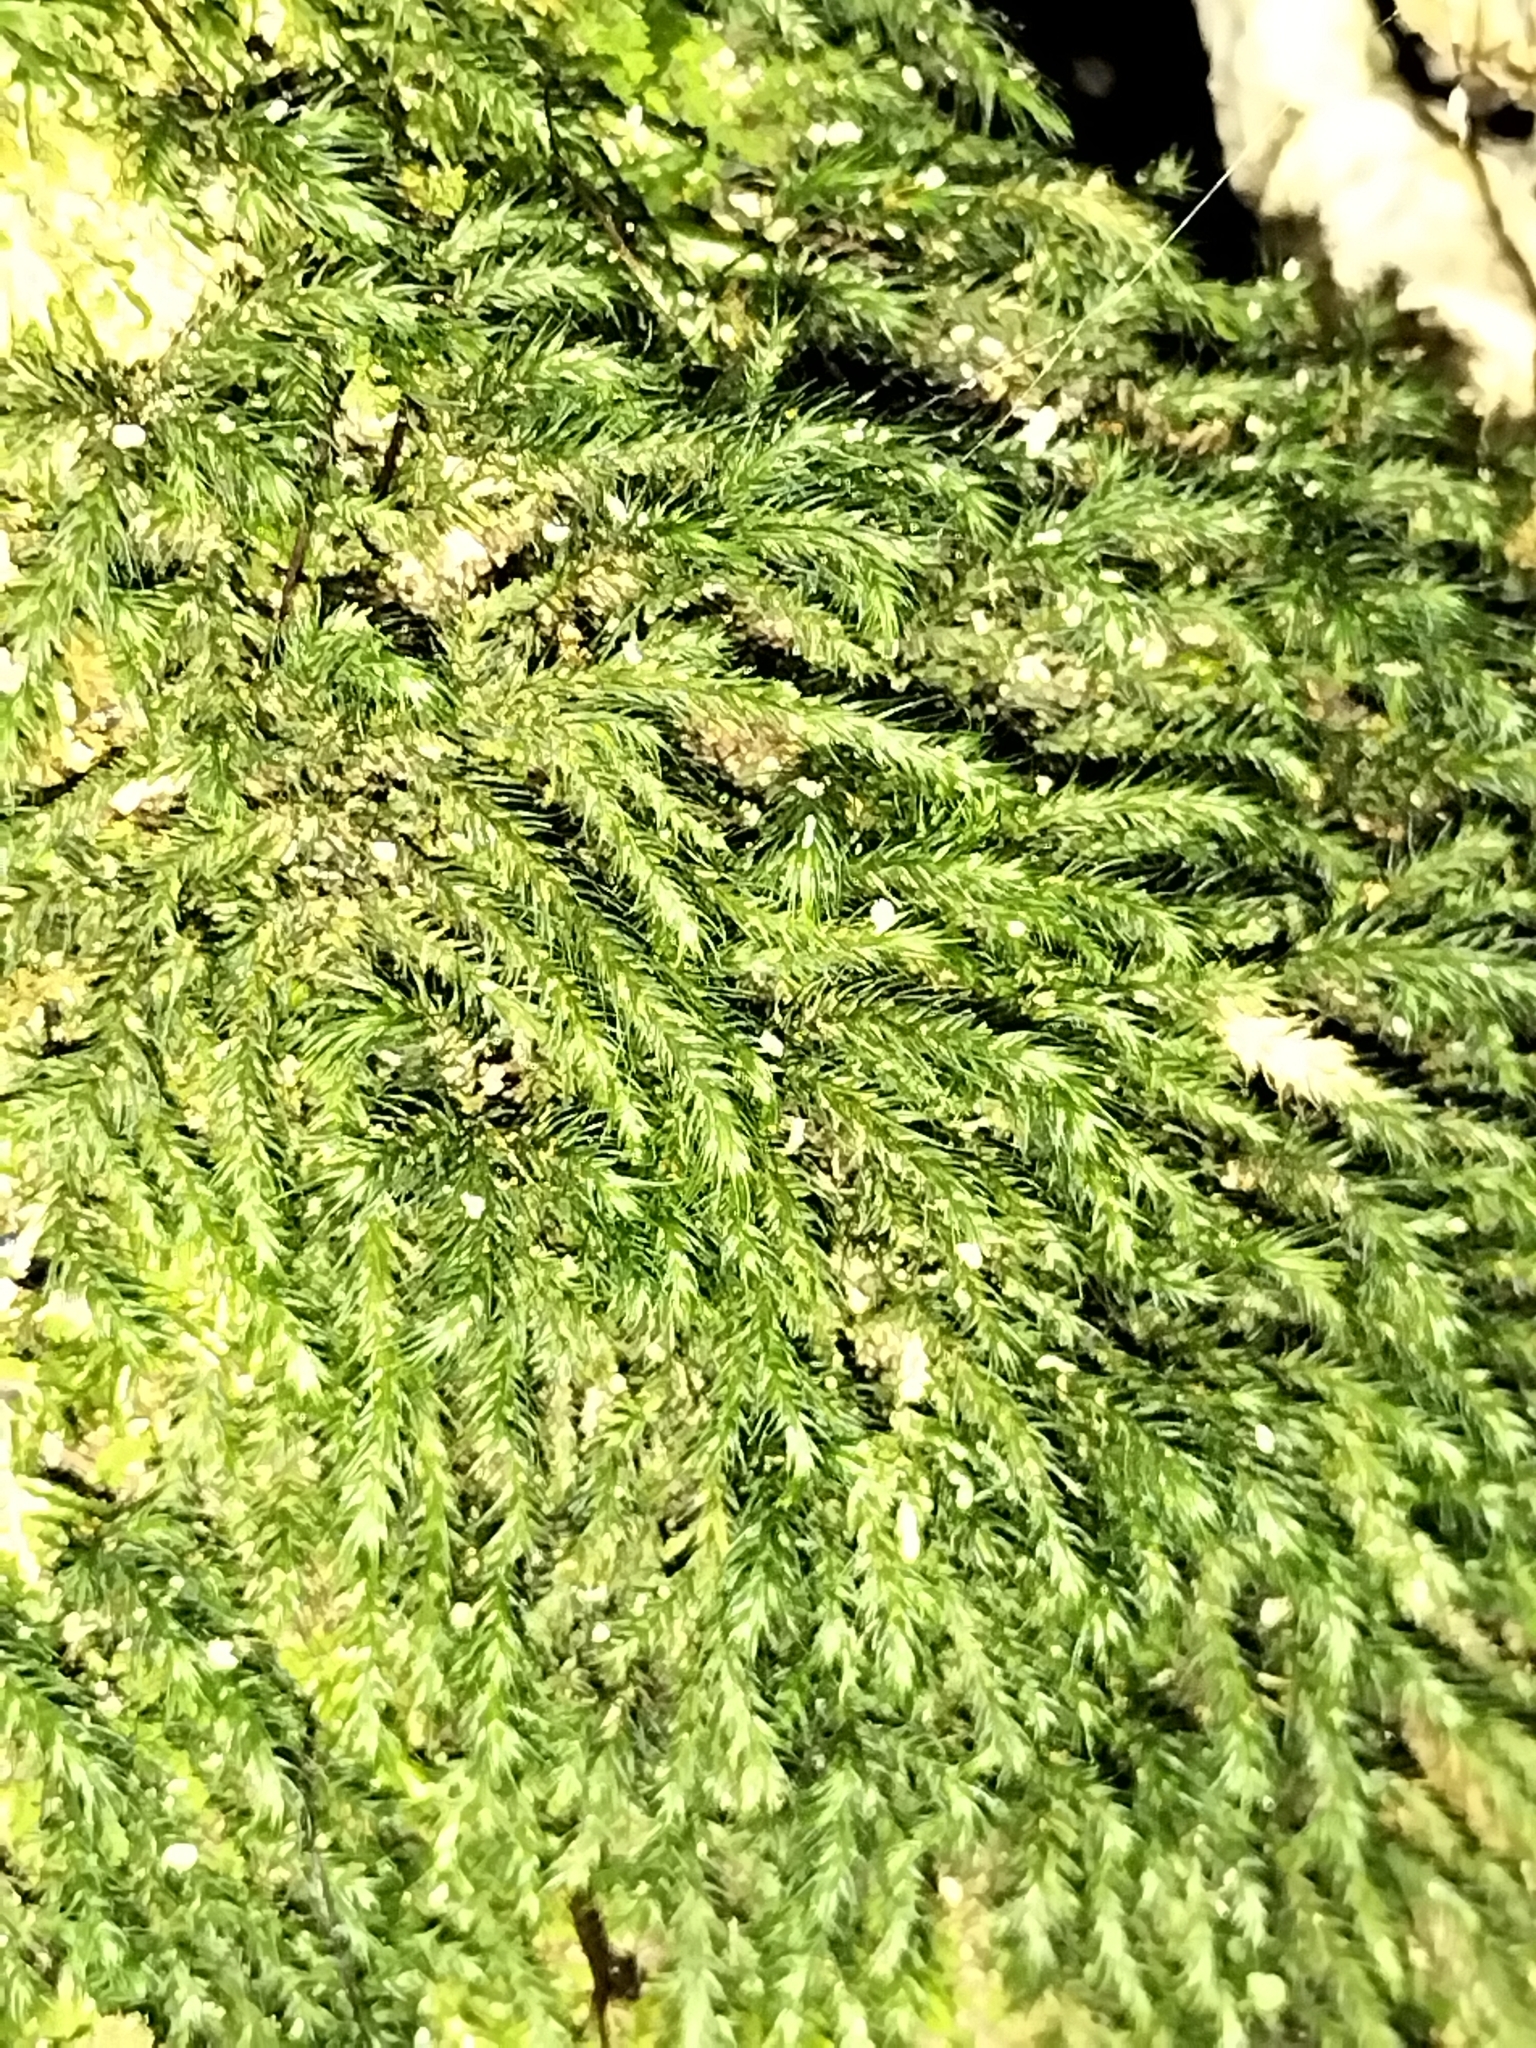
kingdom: Plantae
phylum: Bryophyta
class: Bryopsida
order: Hypnales
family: Neckeraceae
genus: Echinodiopsis
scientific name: Echinodiopsis hispida
